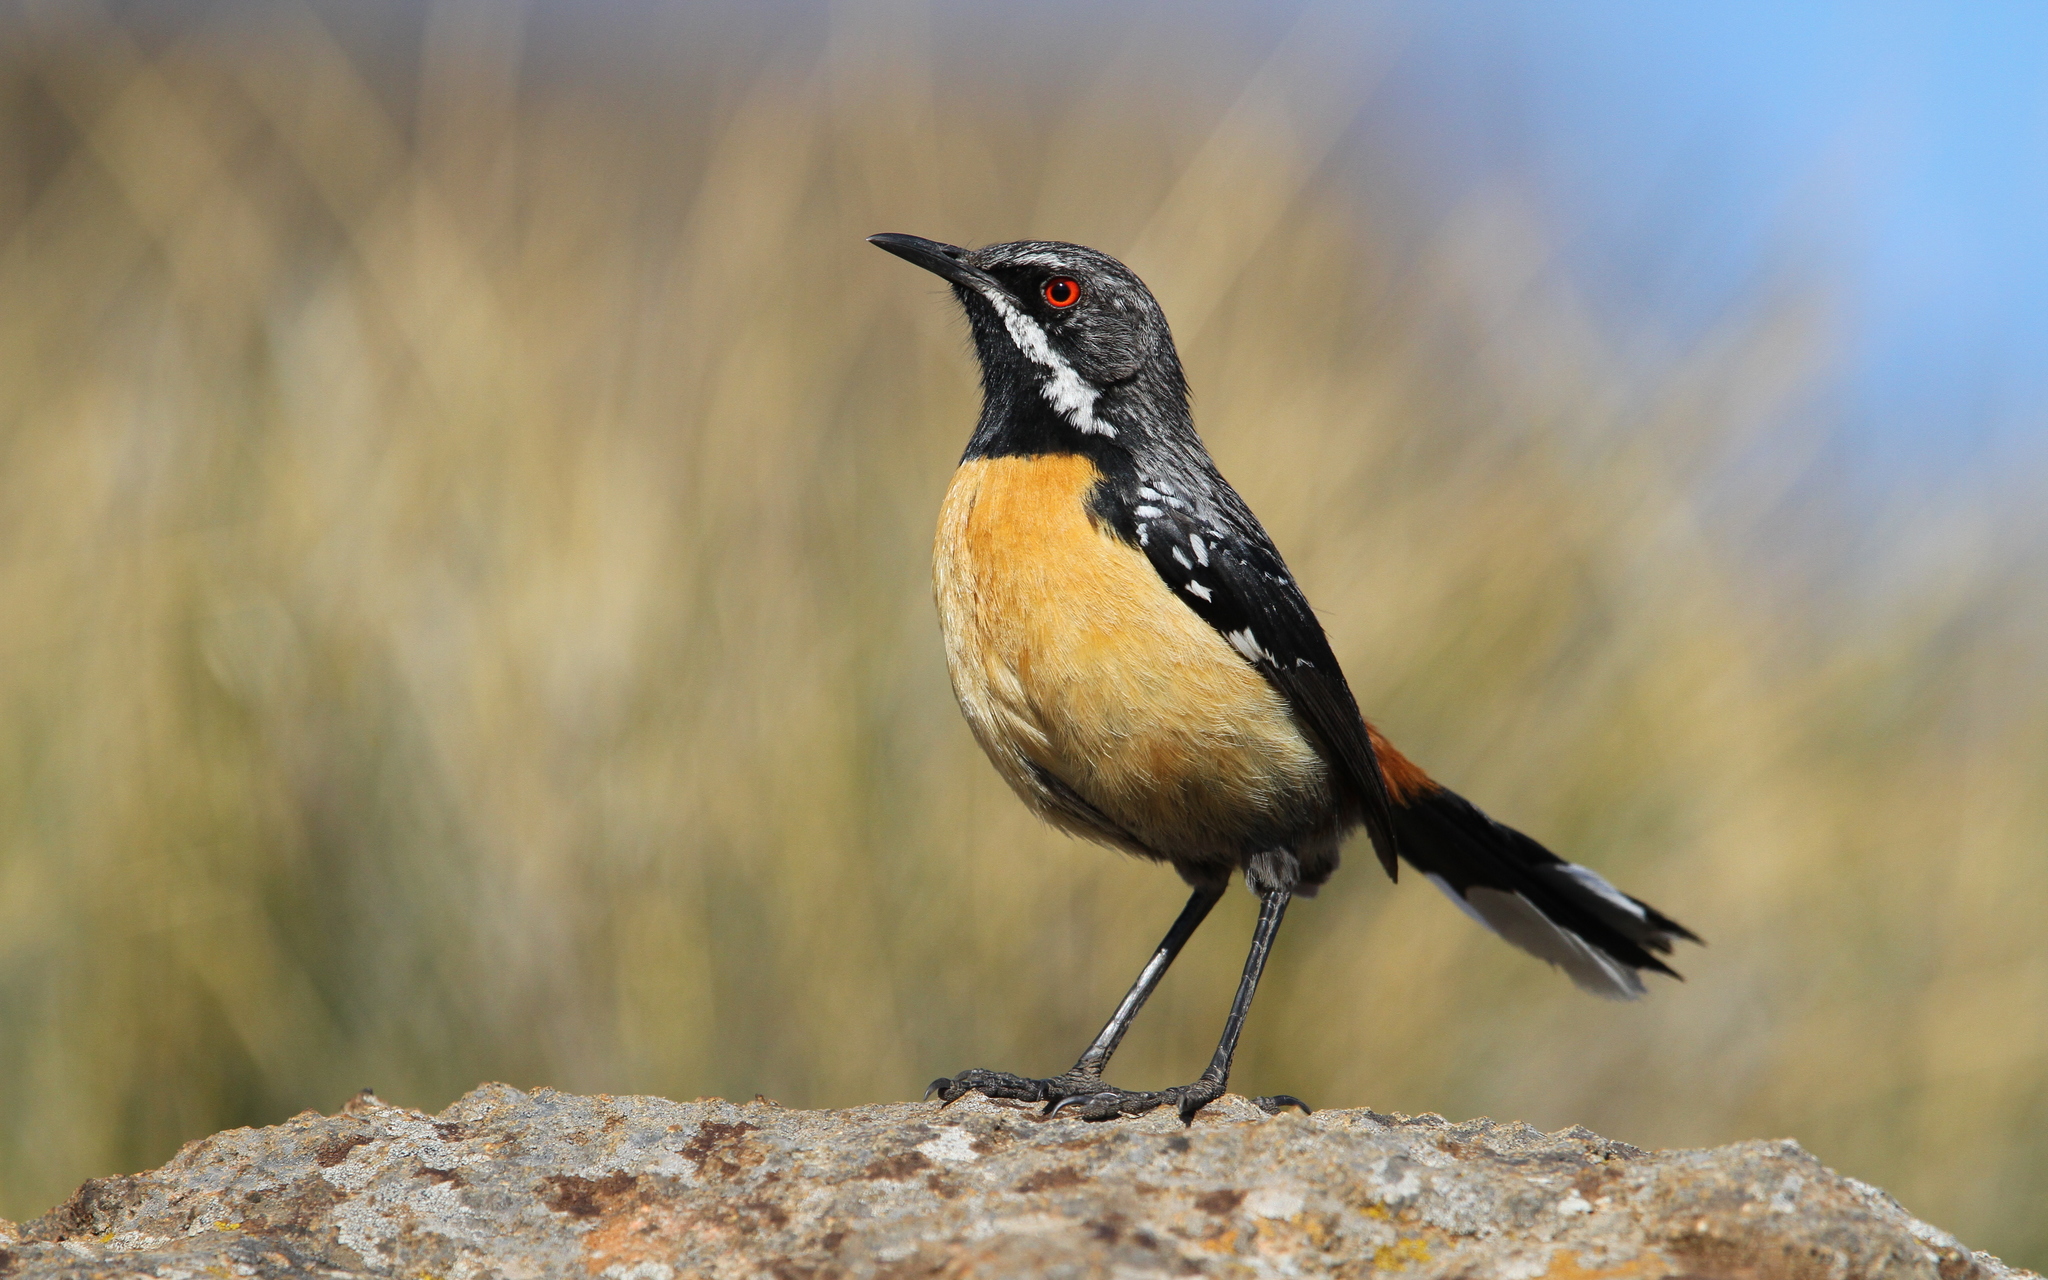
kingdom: Animalia
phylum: Chordata
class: Aves
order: Passeriformes
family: Chaetopidae
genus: Chaetops
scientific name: Chaetops aurantius
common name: Drakensberg rockjumper
